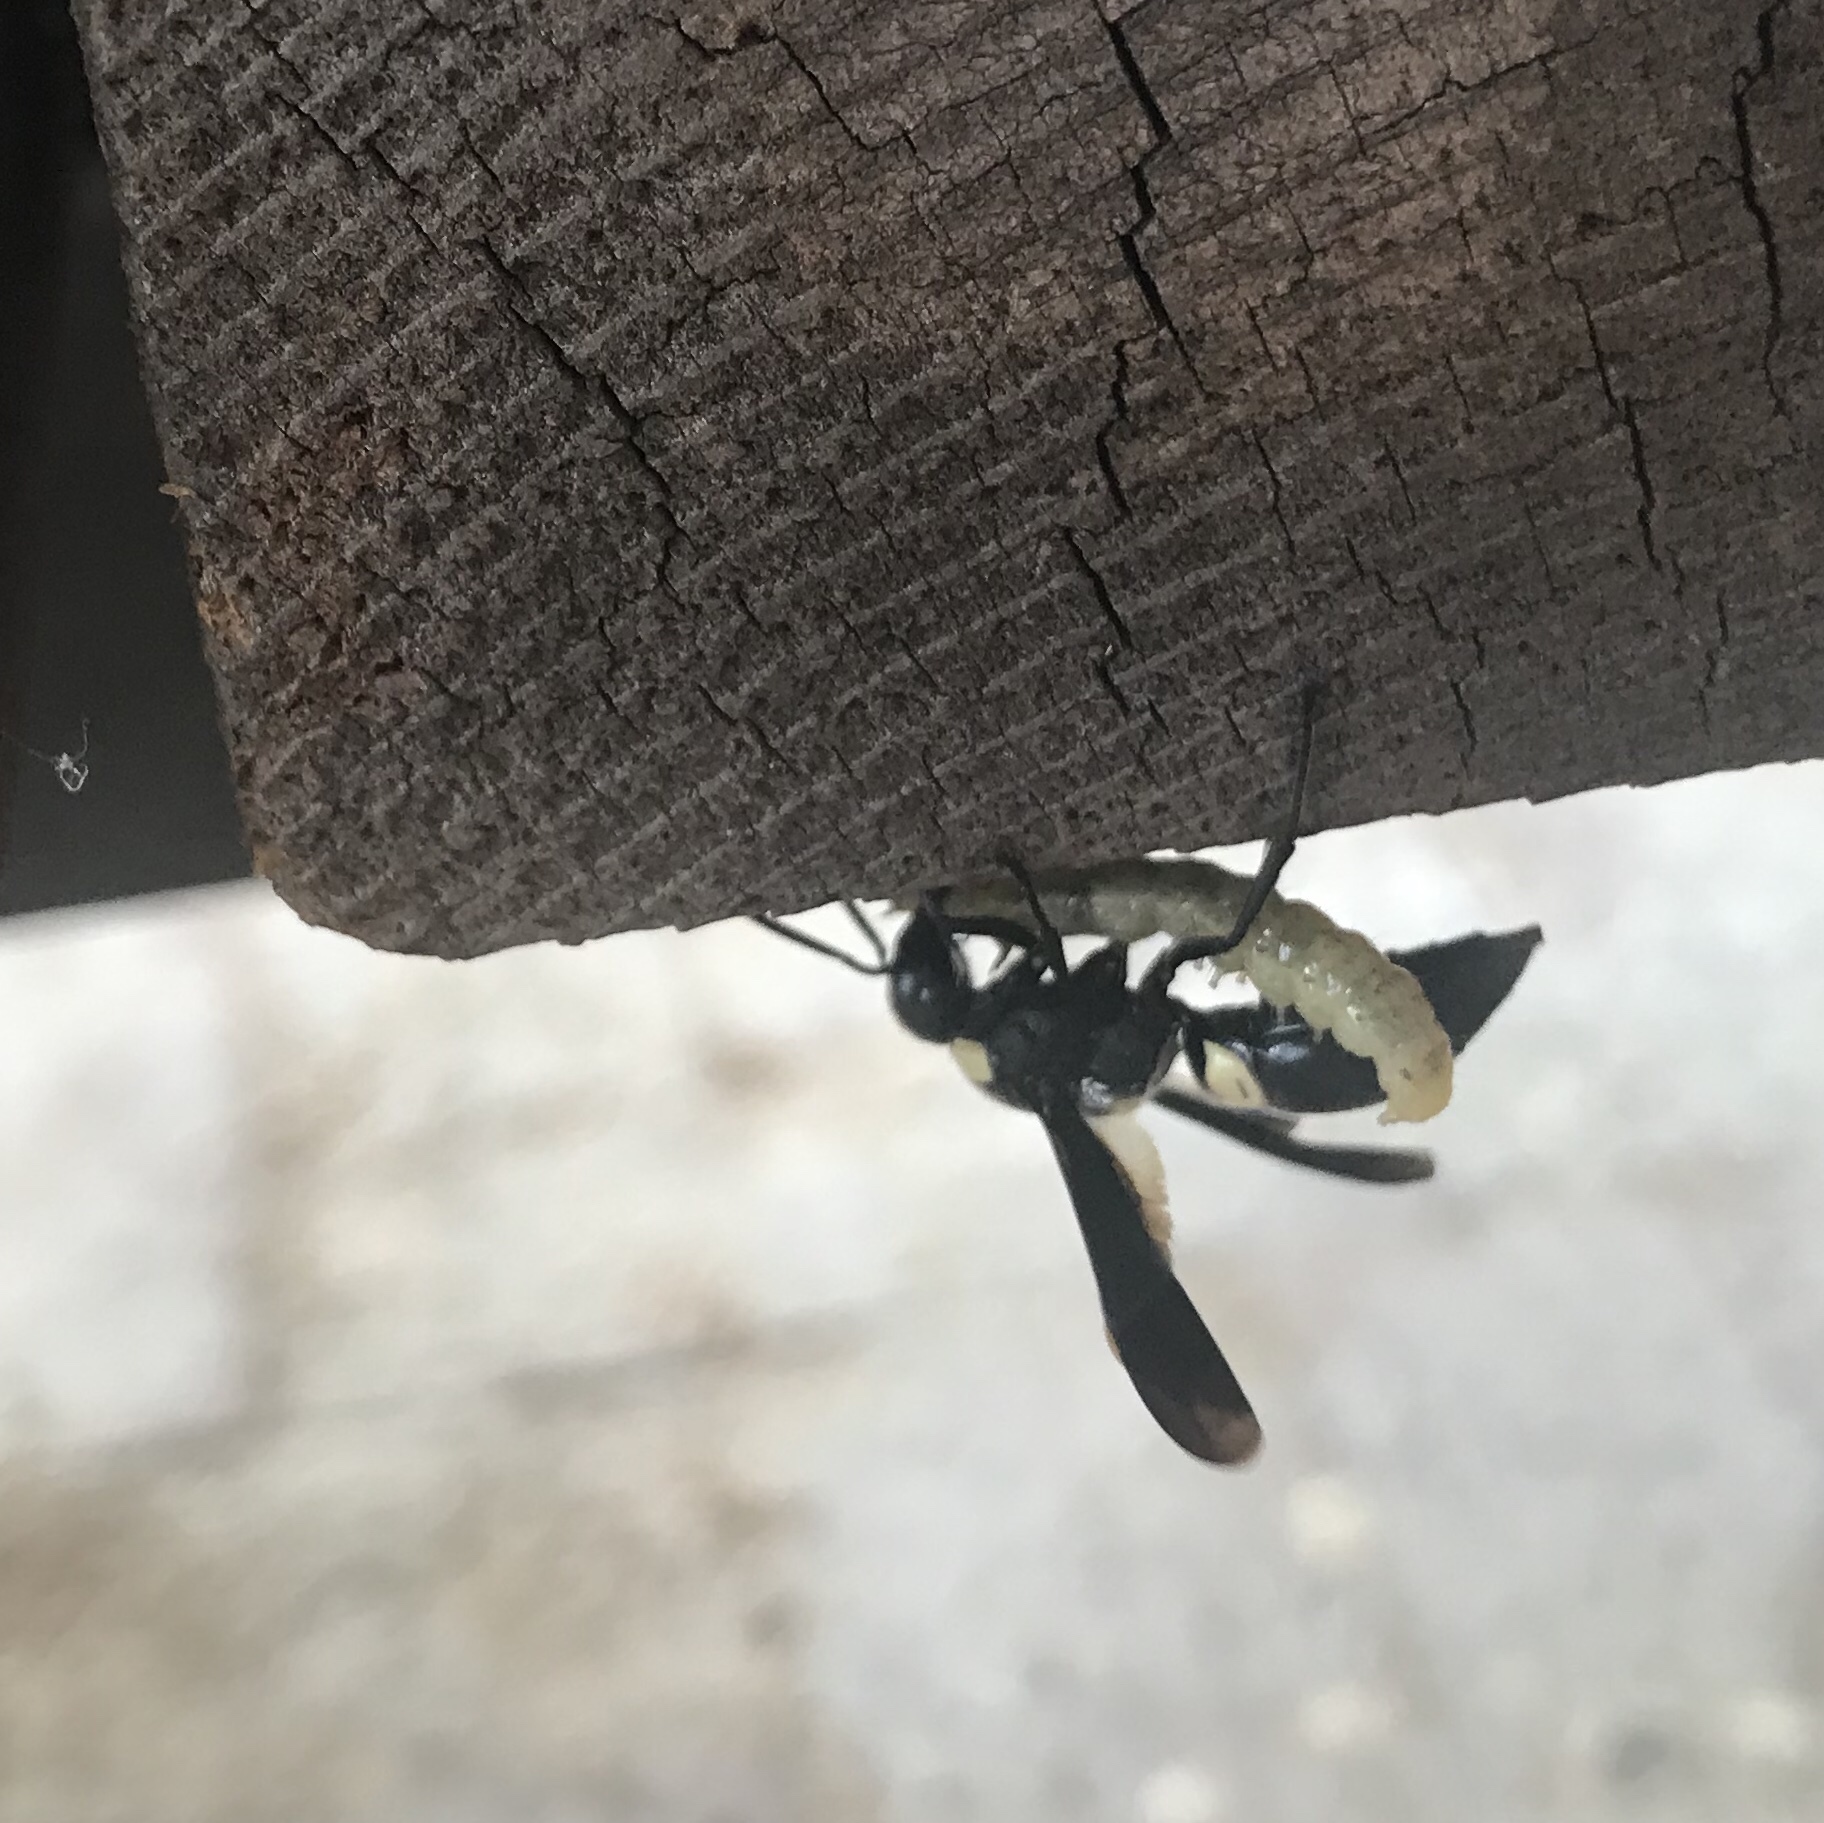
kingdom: Animalia
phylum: Arthropoda
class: Insecta
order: Hymenoptera
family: Eumenidae
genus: Monobia
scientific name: Monobia quadridens
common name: Four-toothed mason wasp
